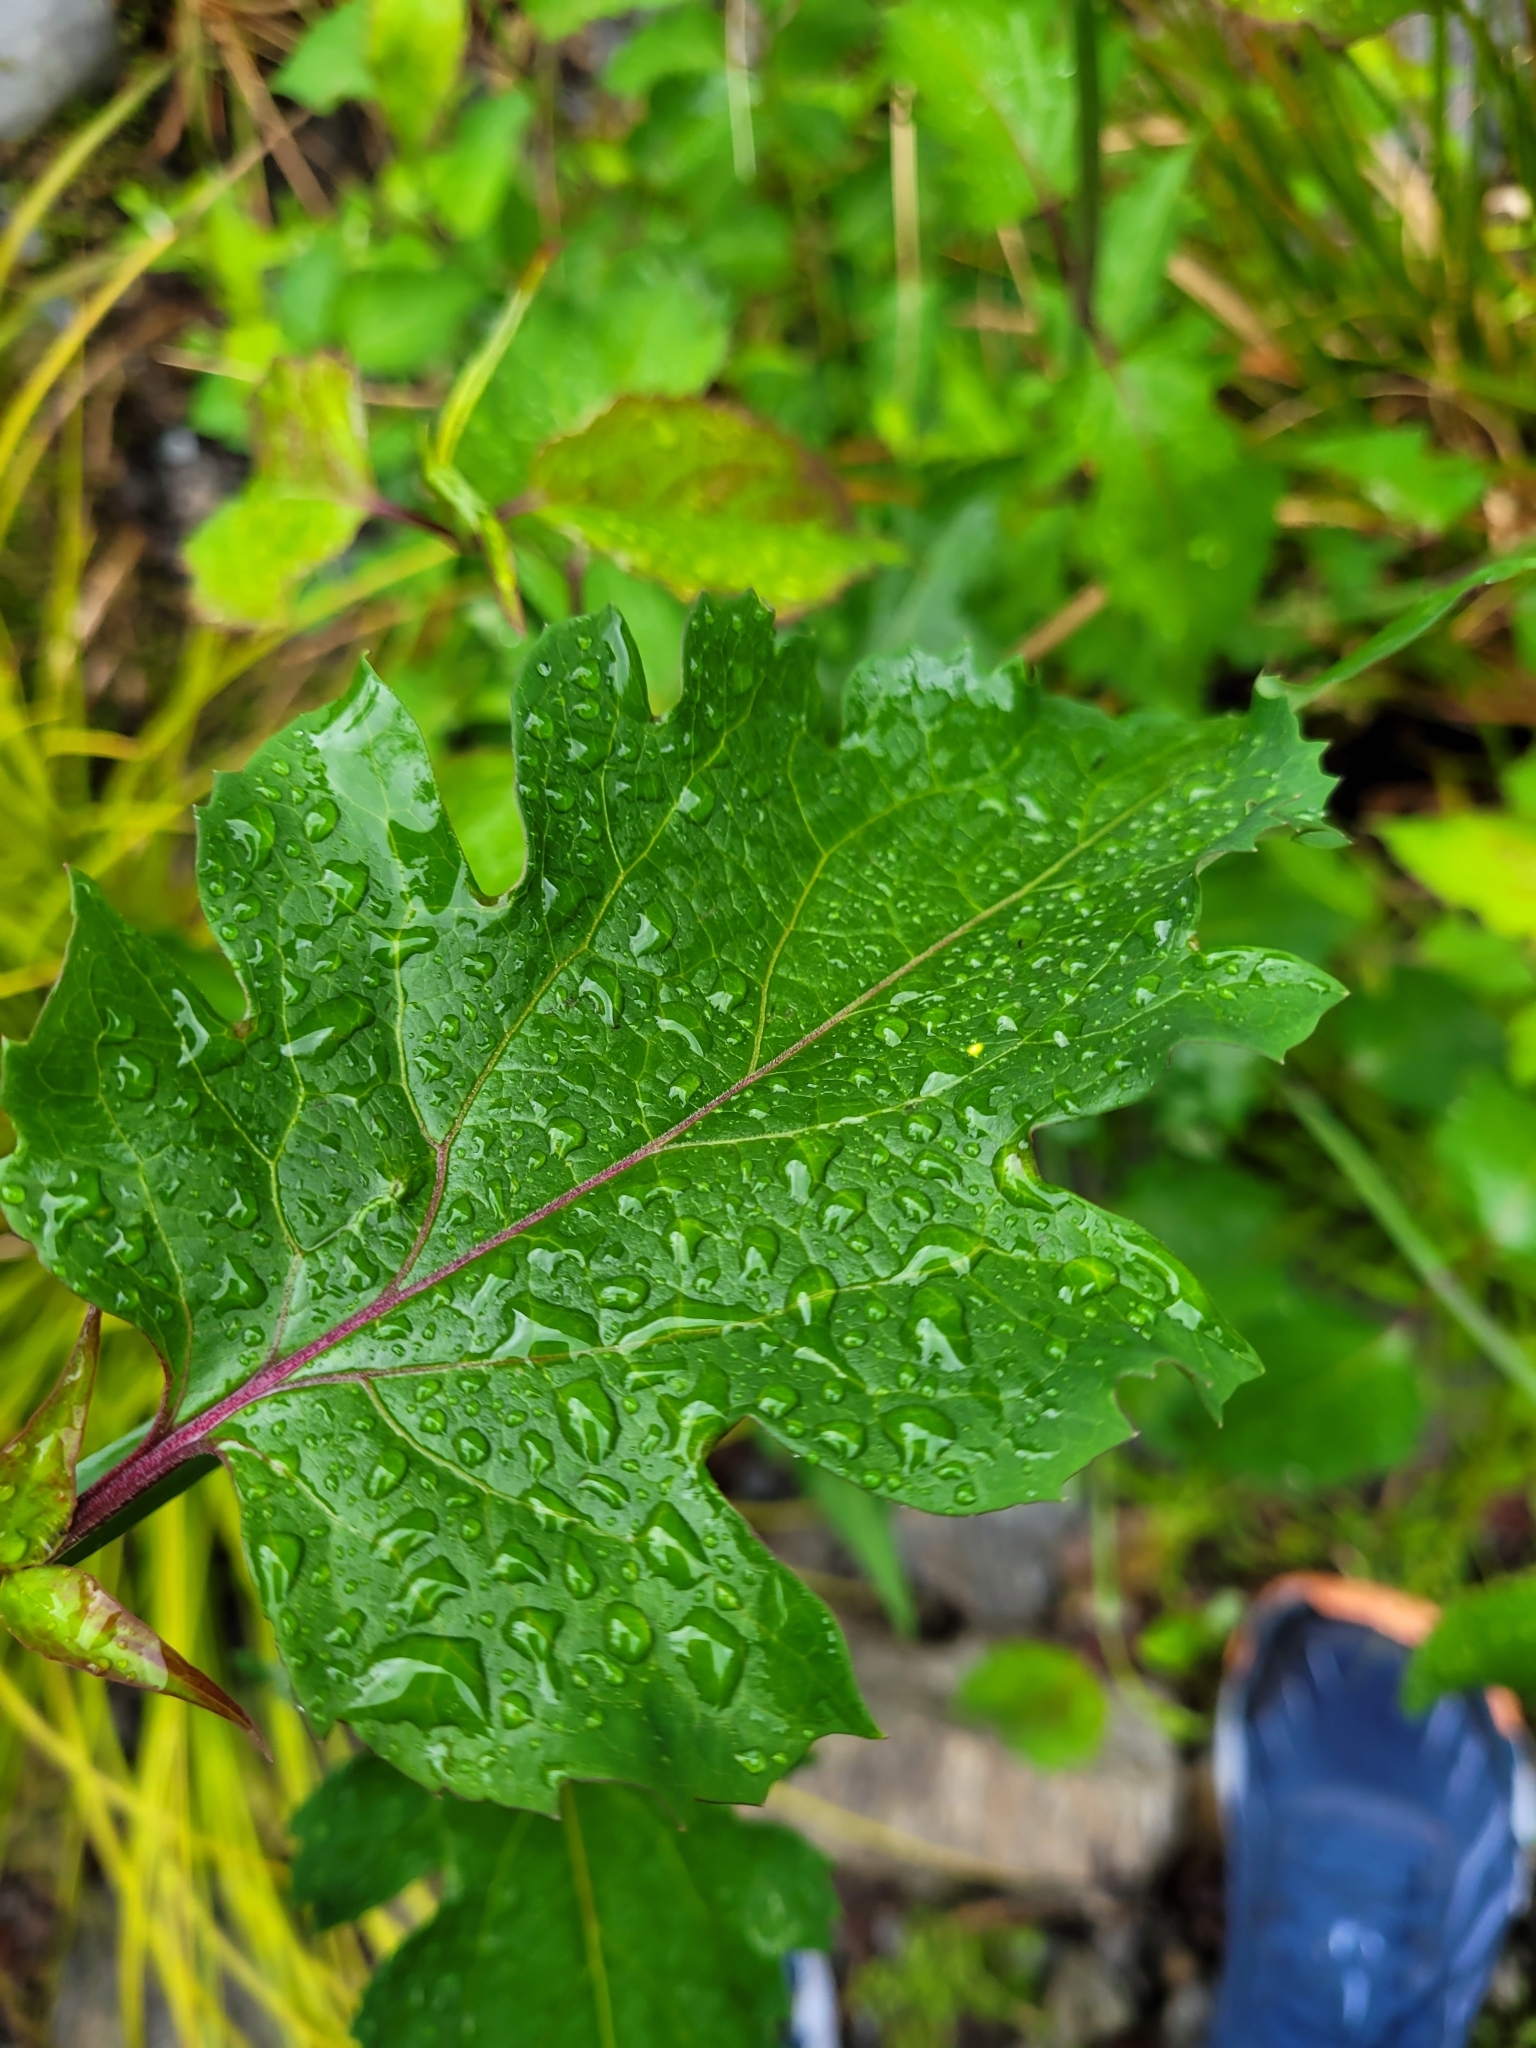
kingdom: Plantae
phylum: Tracheophyta
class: Magnoliopsida
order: Dipsacales
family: Caprifoliaceae
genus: Leycesteria
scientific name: Leycesteria formosa
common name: Himalayan honeysuckle
